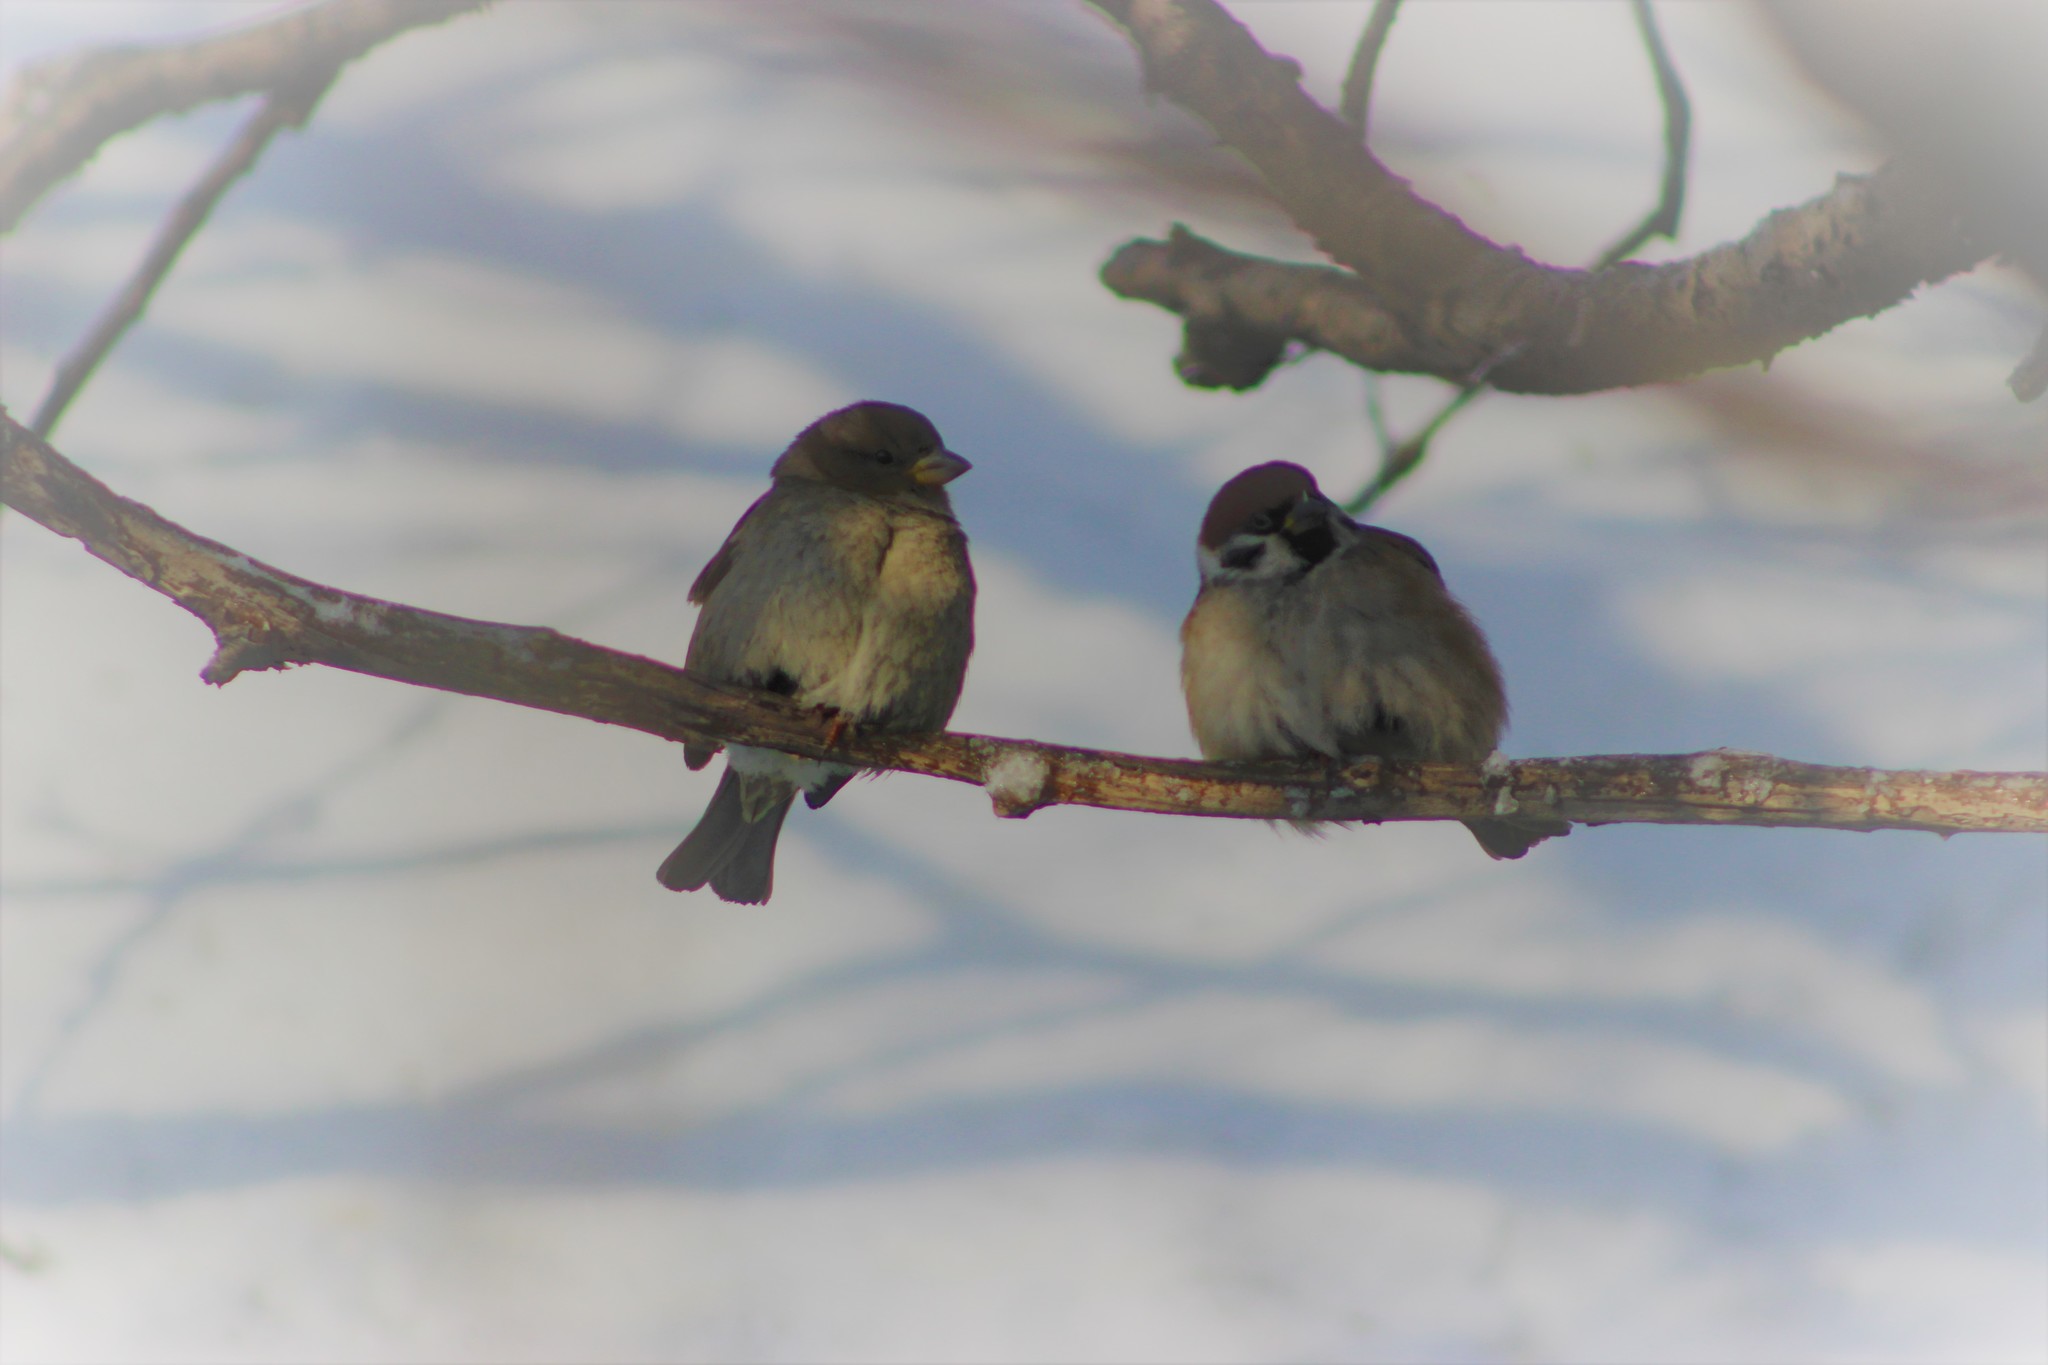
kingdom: Animalia
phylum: Chordata
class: Aves
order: Passeriformes
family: Passeridae
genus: Passer
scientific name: Passer montanus
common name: Eurasian tree sparrow
